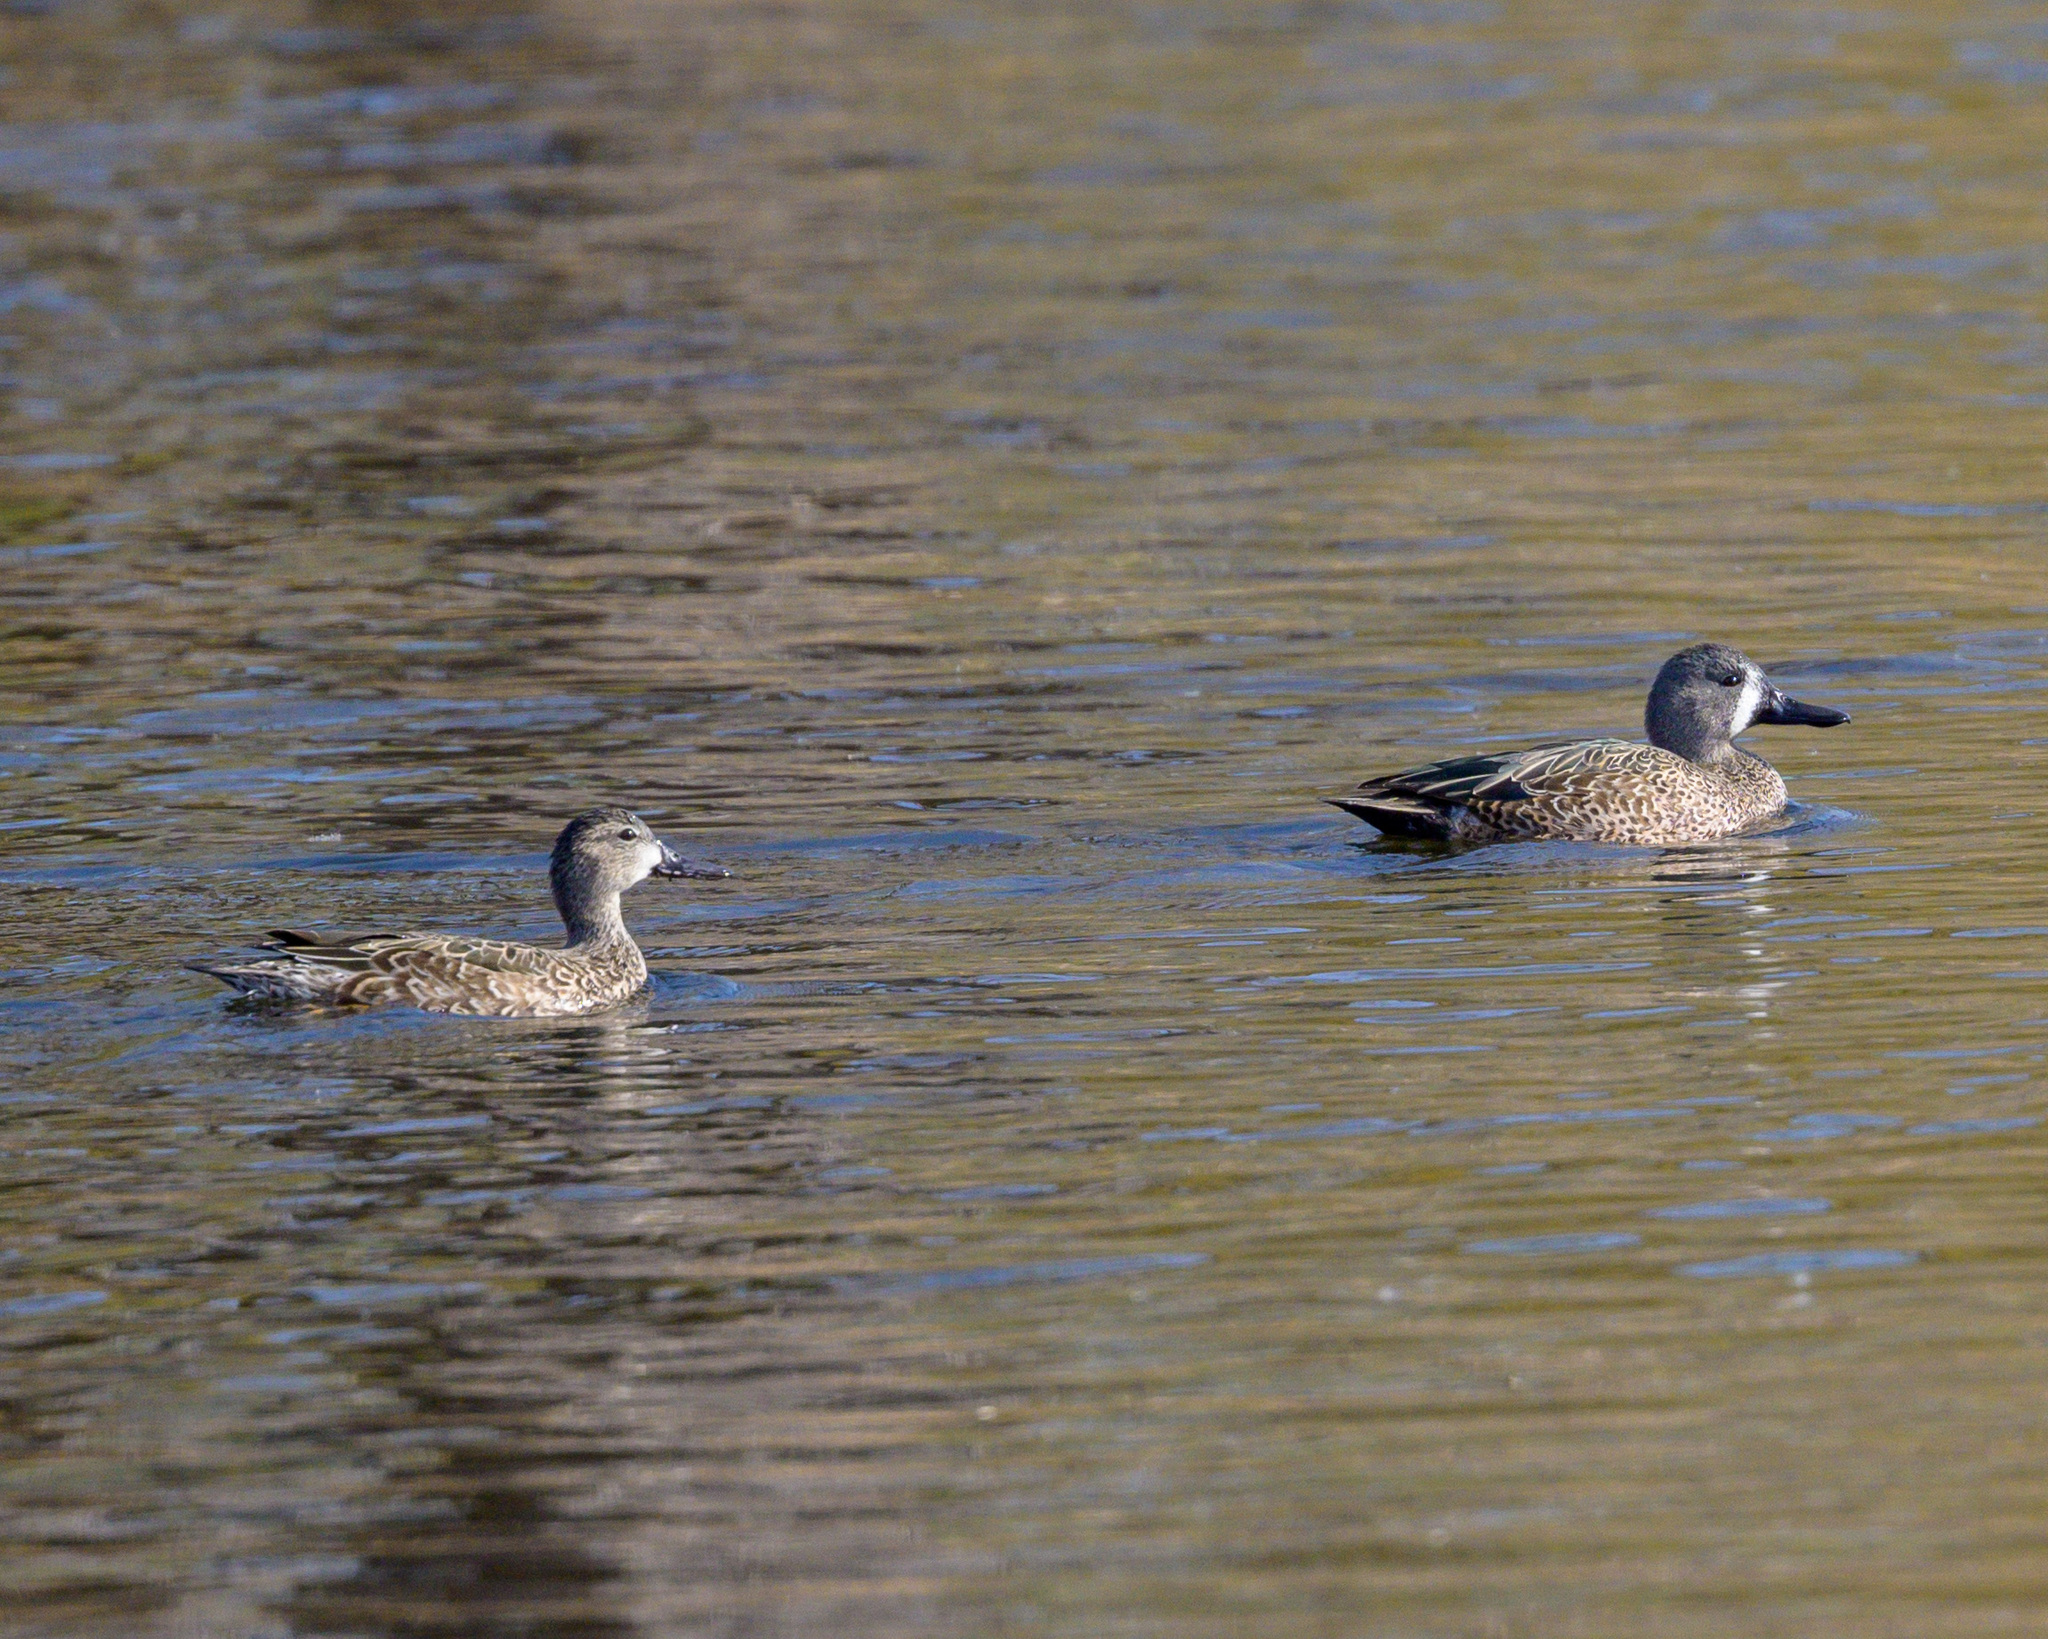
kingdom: Animalia
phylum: Chordata
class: Aves
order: Anseriformes
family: Anatidae
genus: Spatula
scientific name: Spatula discors
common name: Blue-winged teal
